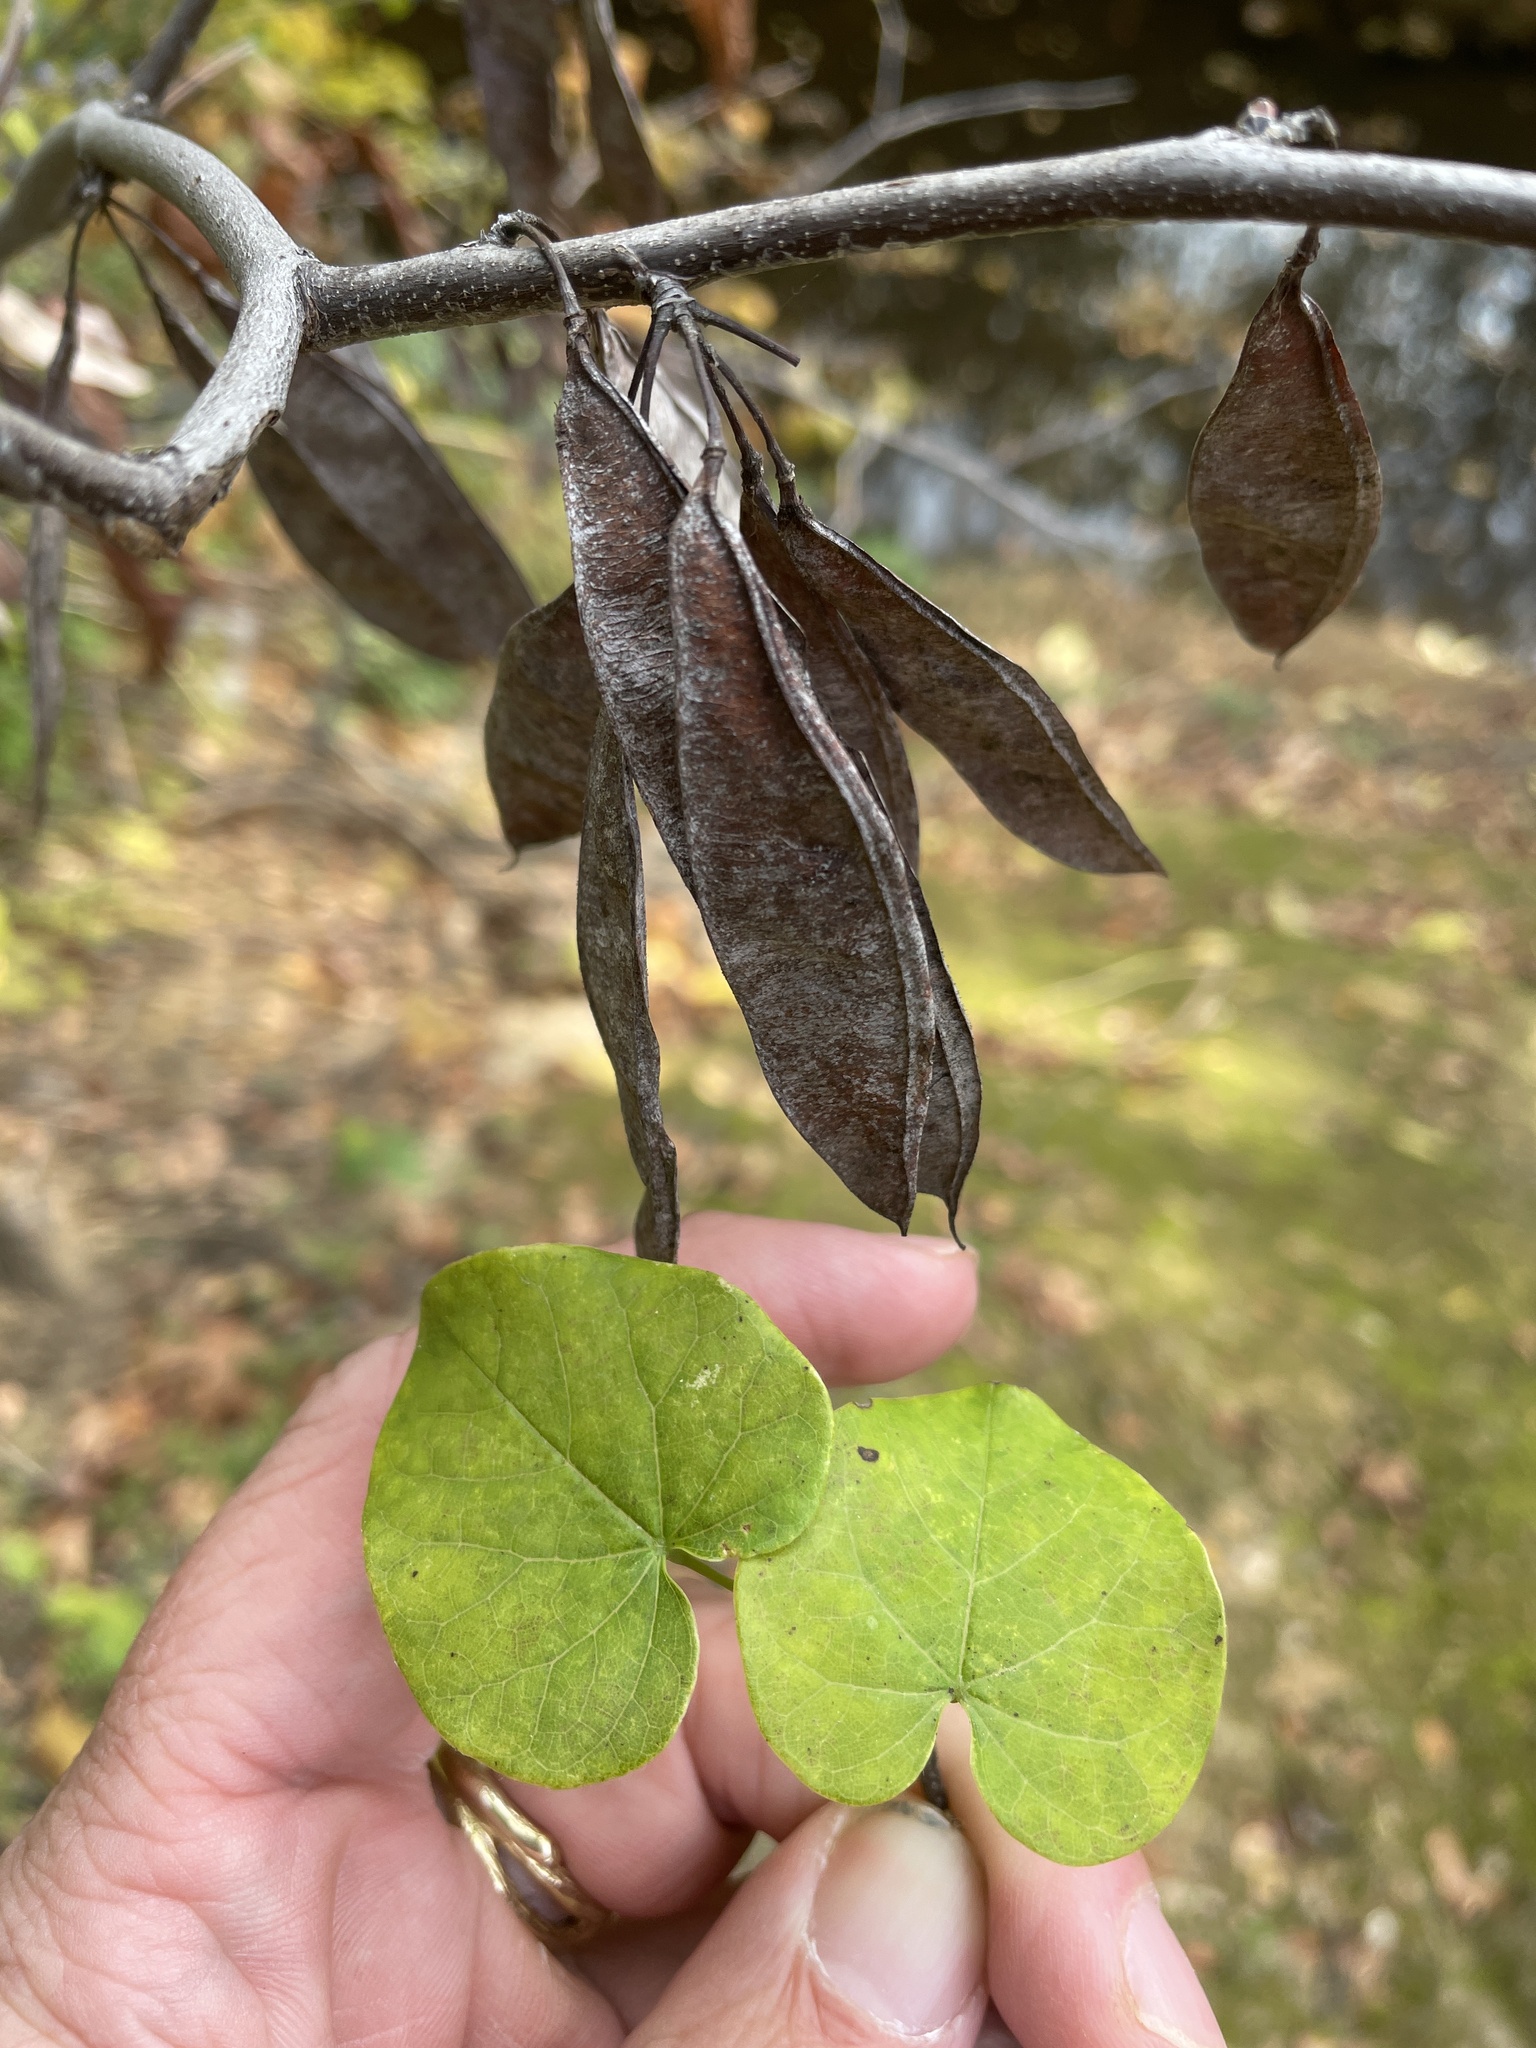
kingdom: Plantae
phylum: Tracheophyta
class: Magnoliopsida
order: Fabales
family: Fabaceae
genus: Cercis
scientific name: Cercis canadensis
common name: Eastern redbud
